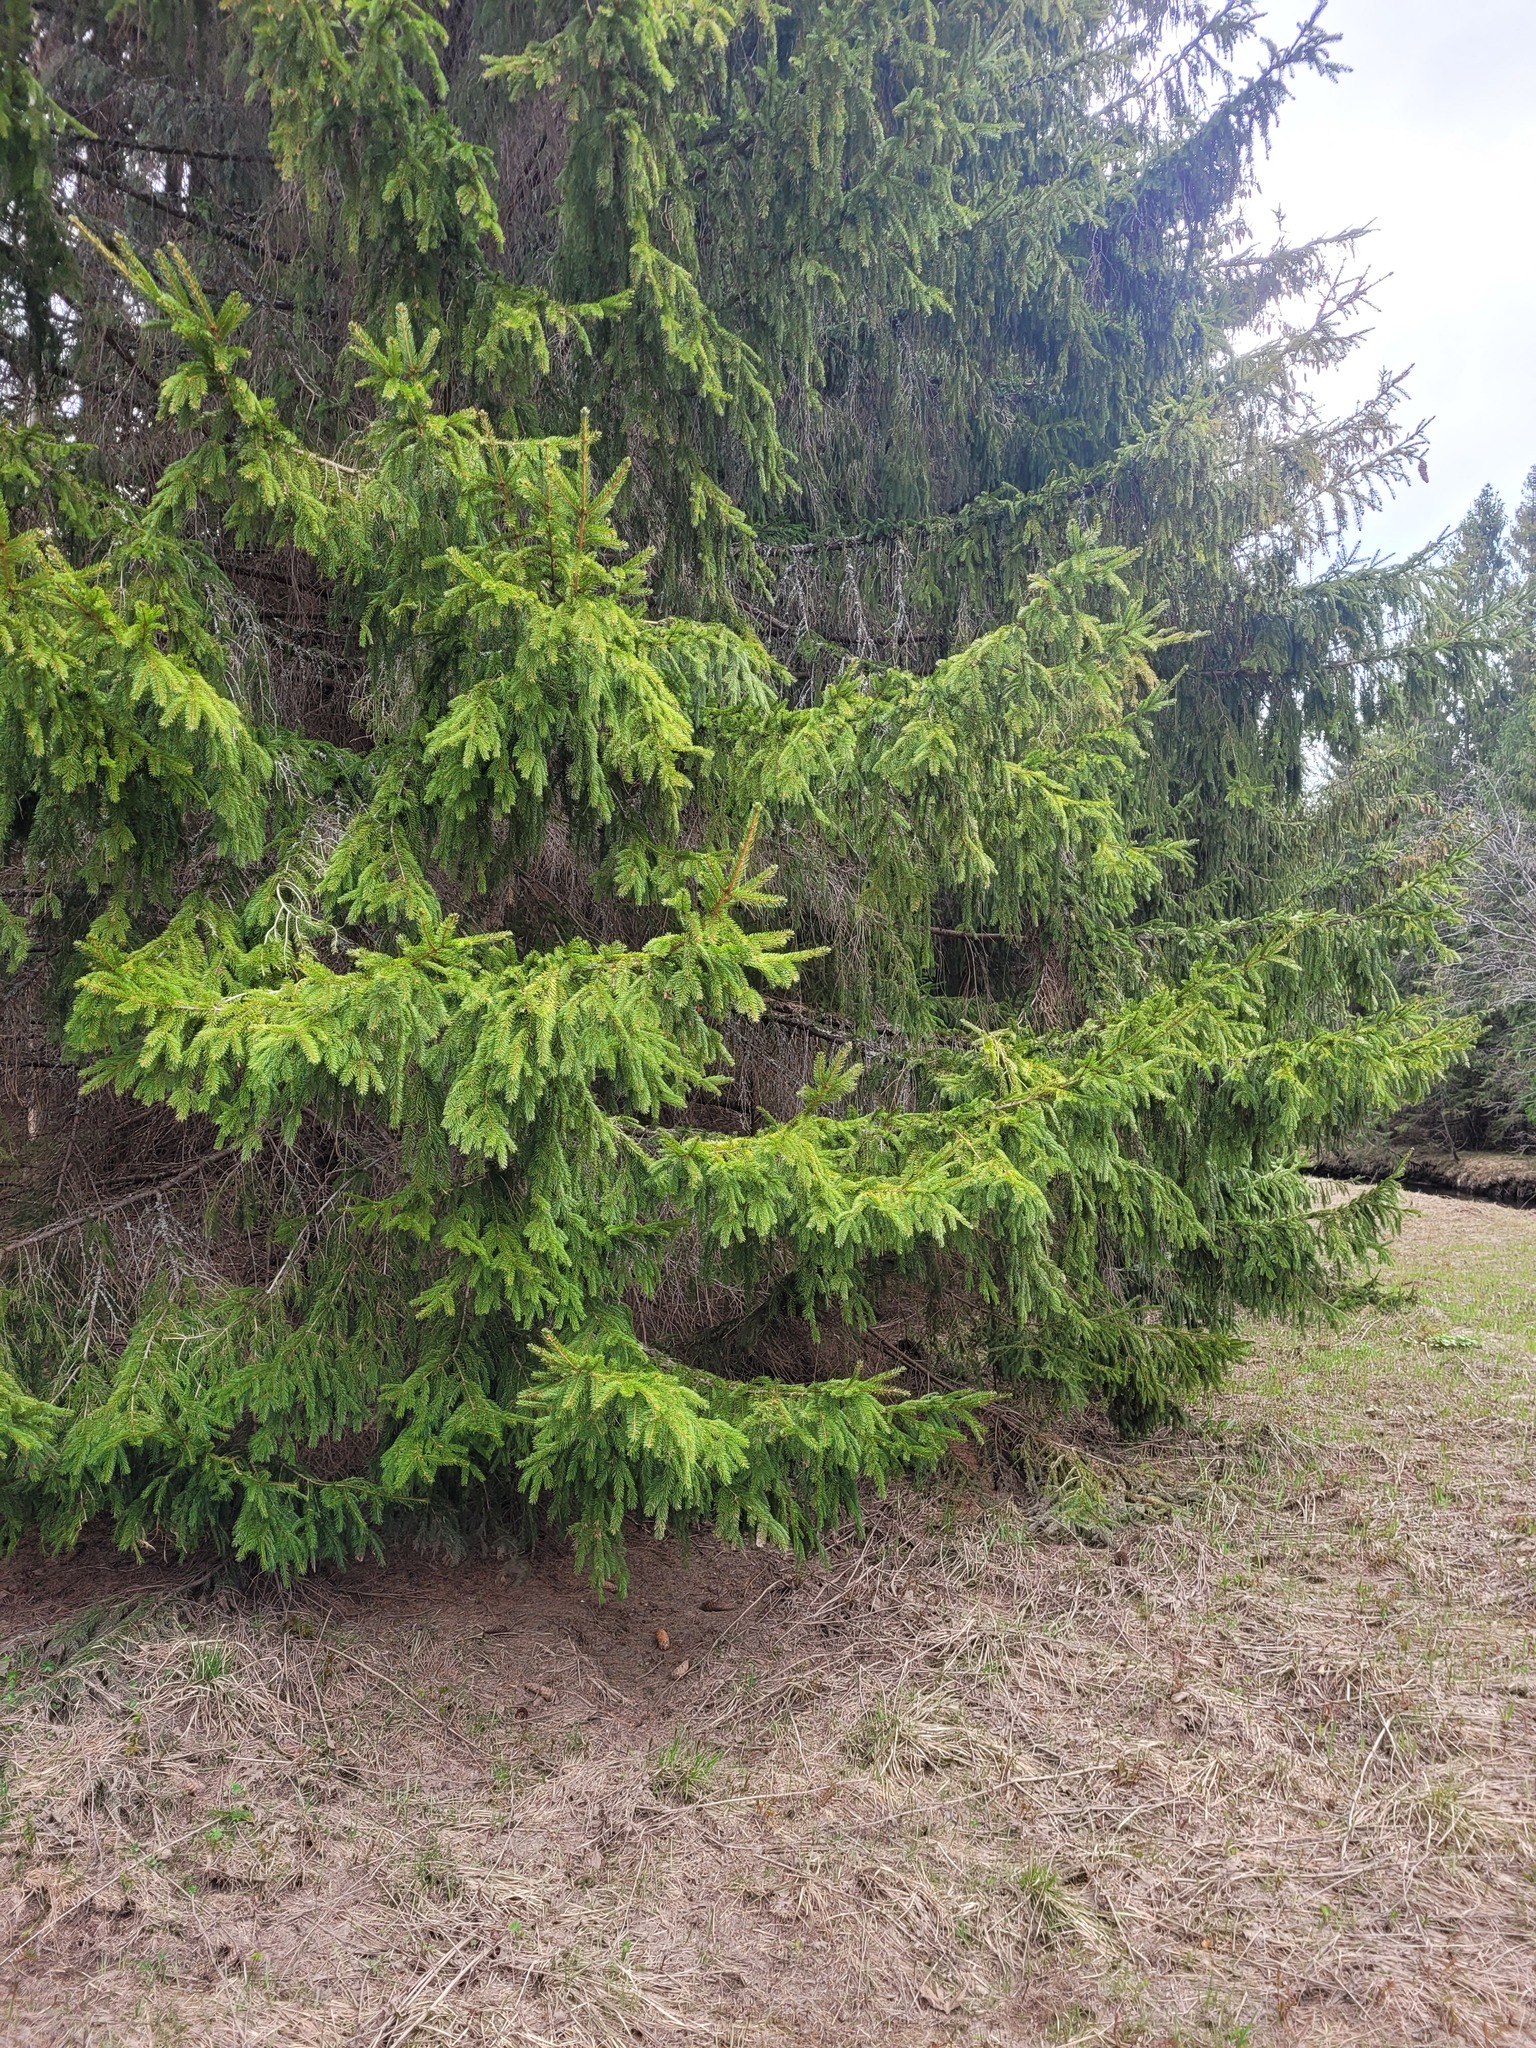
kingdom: Plantae
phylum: Tracheophyta
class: Pinopsida
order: Pinales
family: Pinaceae
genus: Picea
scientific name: Picea abies
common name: Norway spruce
